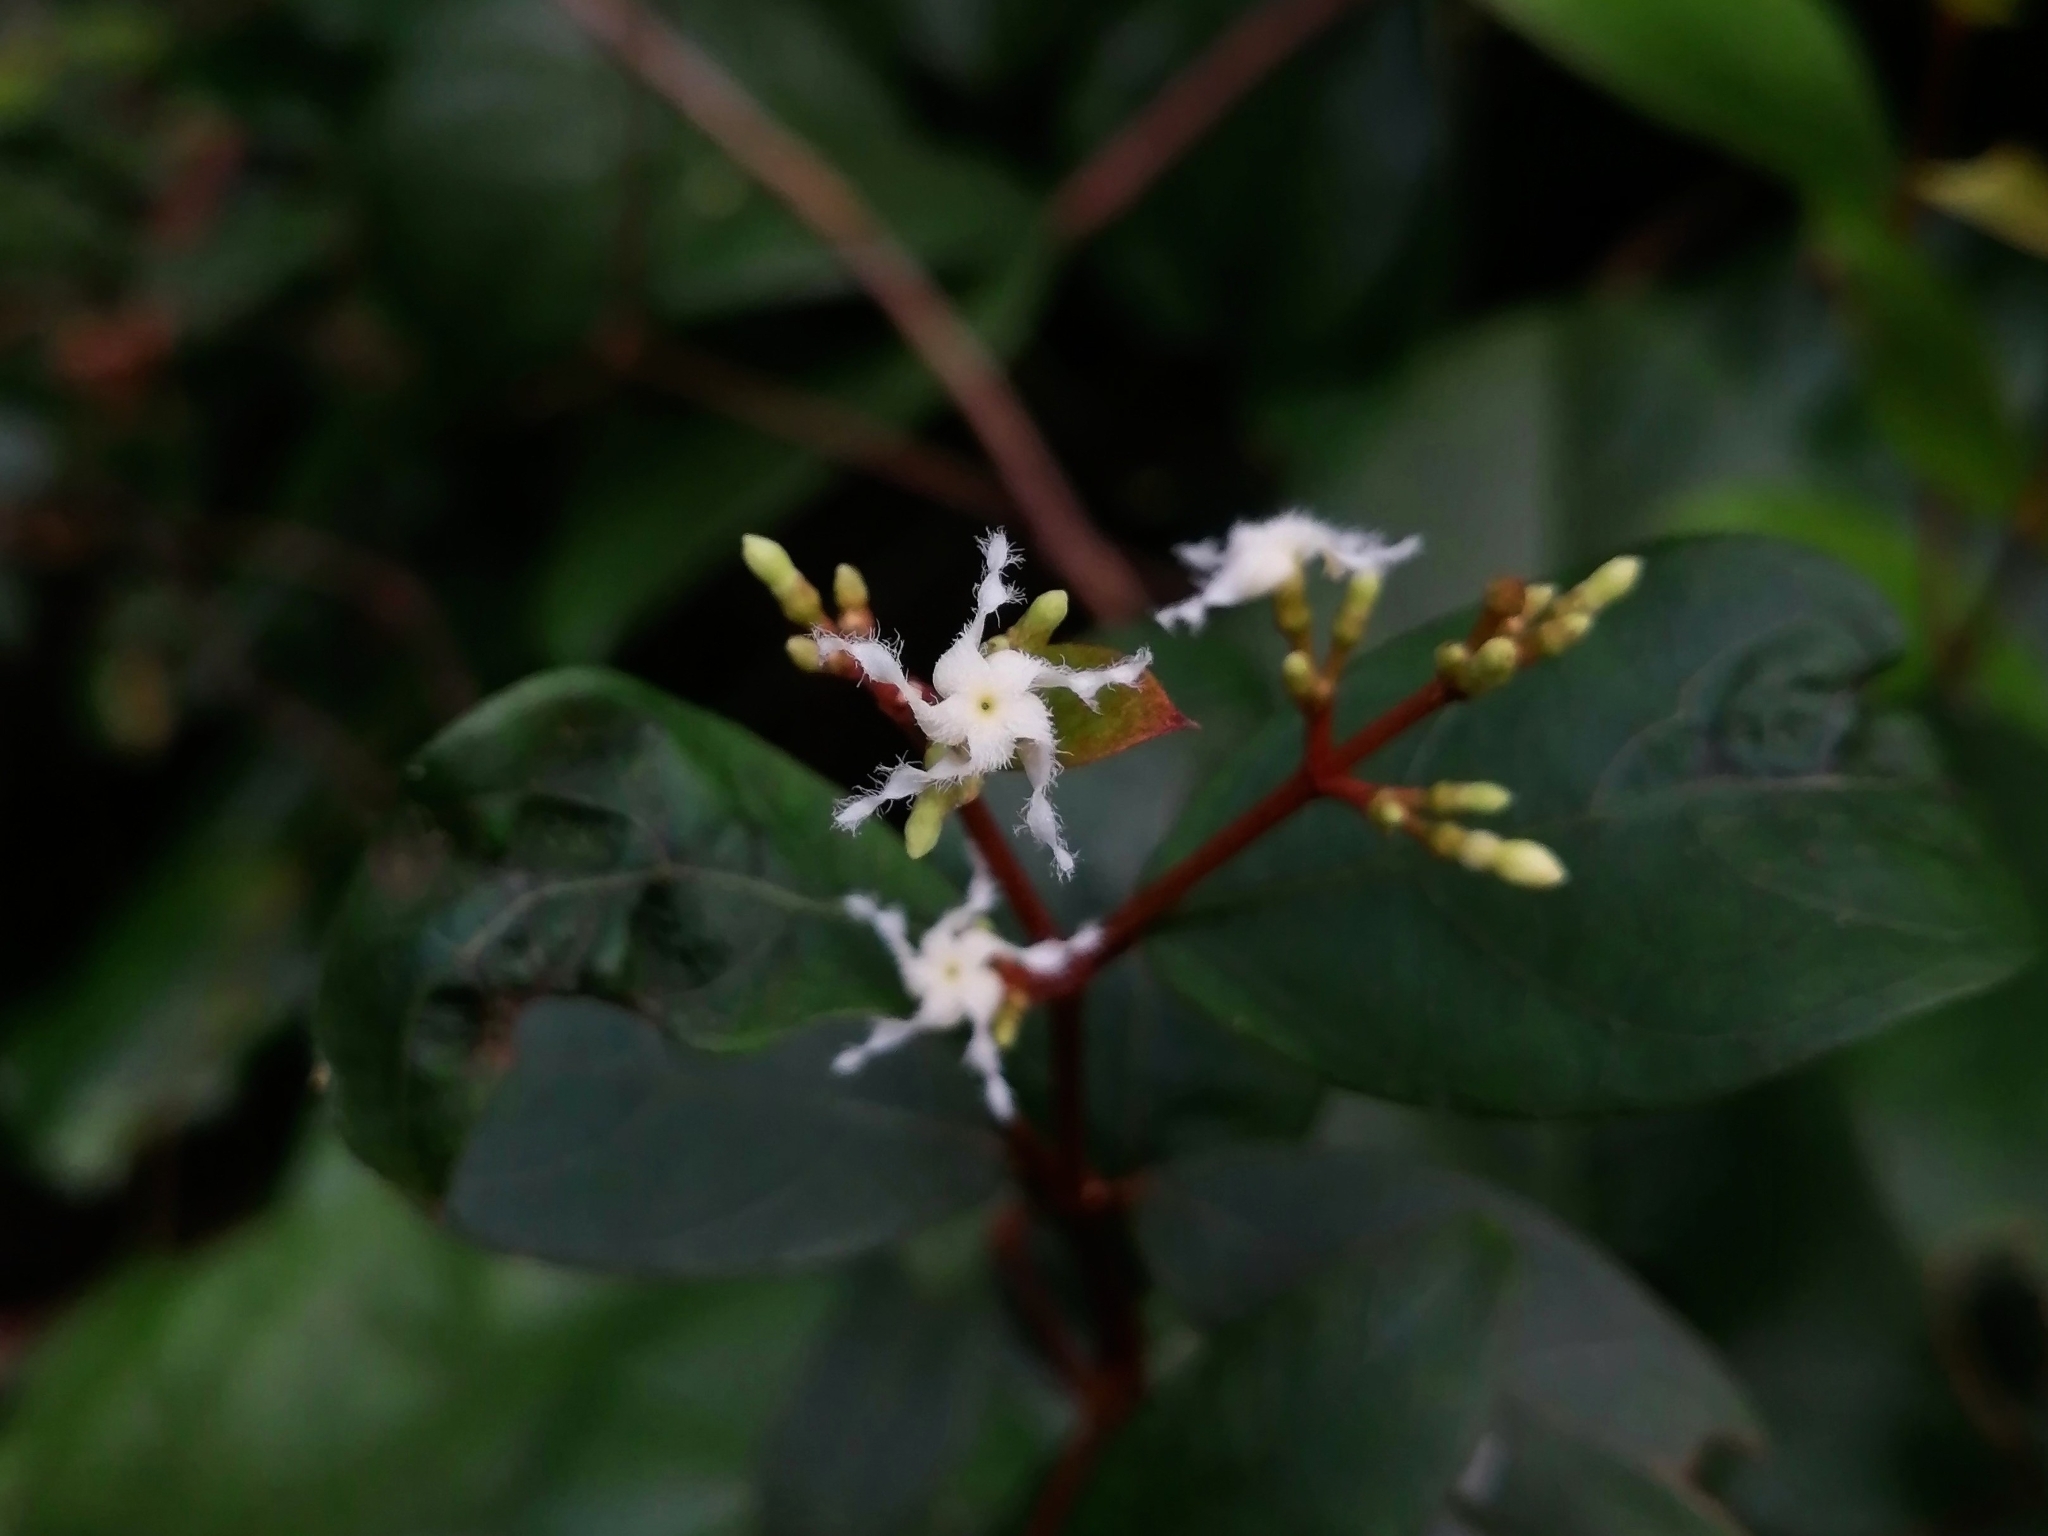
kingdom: Plantae
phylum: Tracheophyta
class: Magnoliopsida
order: Gentianales
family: Apocynaceae
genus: Ichnocarpus
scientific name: Ichnocarpus frutescens
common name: Ichnocarpus
